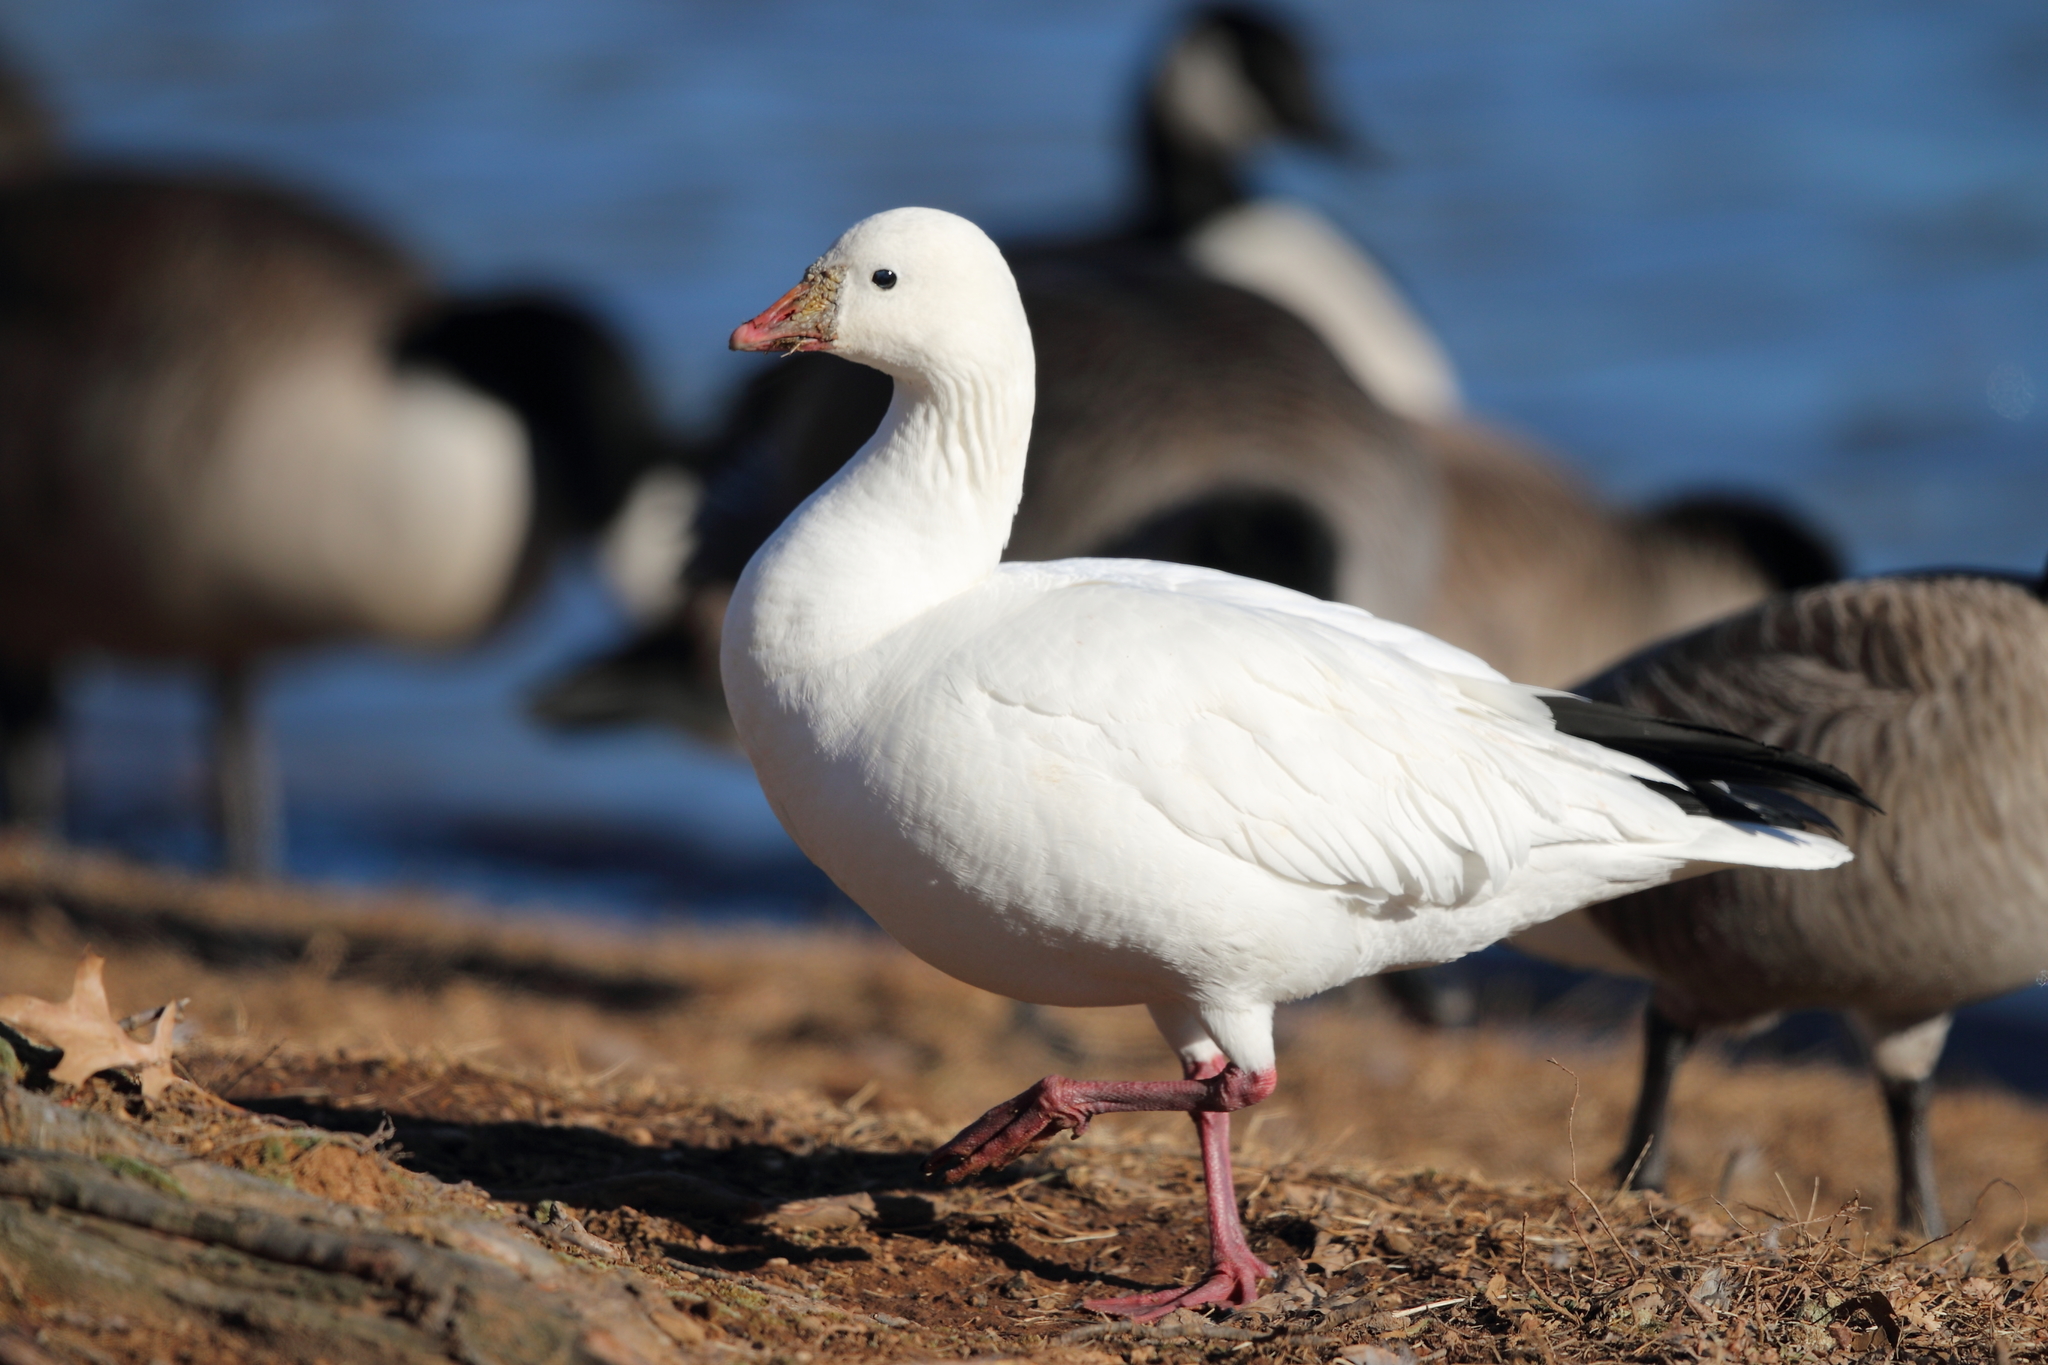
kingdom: Animalia
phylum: Chordata
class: Aves
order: Anseriformes
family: Anatidae
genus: Anser
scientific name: Anser rossii
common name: Ross's goose
